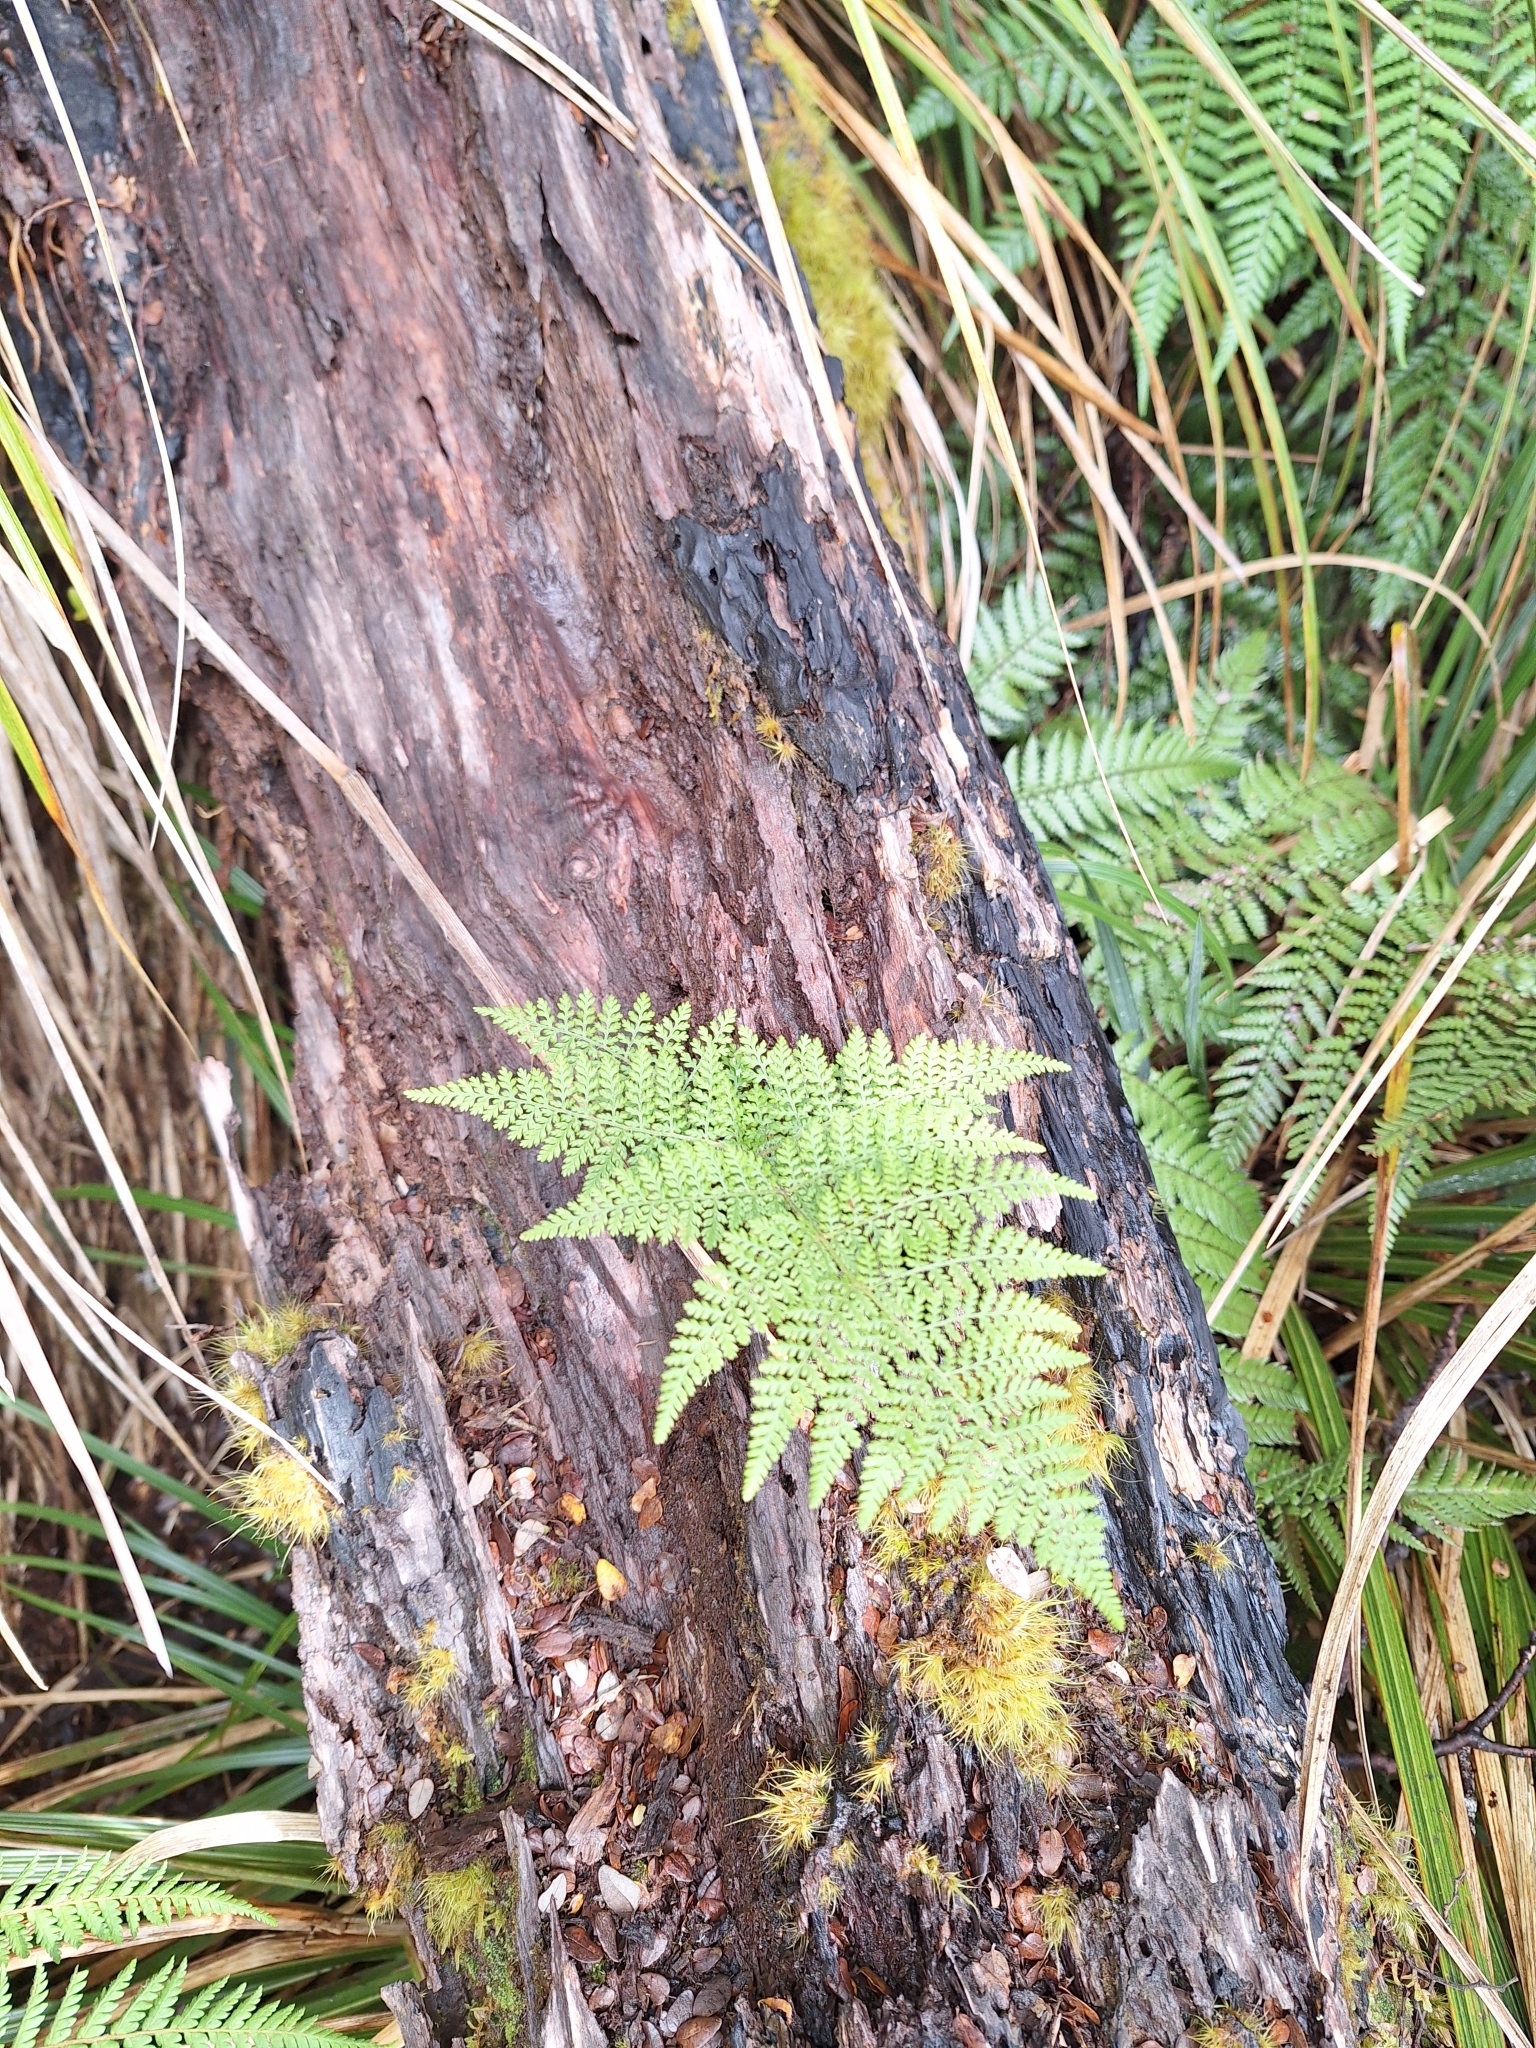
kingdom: Plantae
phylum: Tracheophyta
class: Polypodiopsida
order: Polypodiales
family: Dennstaedtiaceae
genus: Hypolepis
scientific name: Hypolepis millefolium
